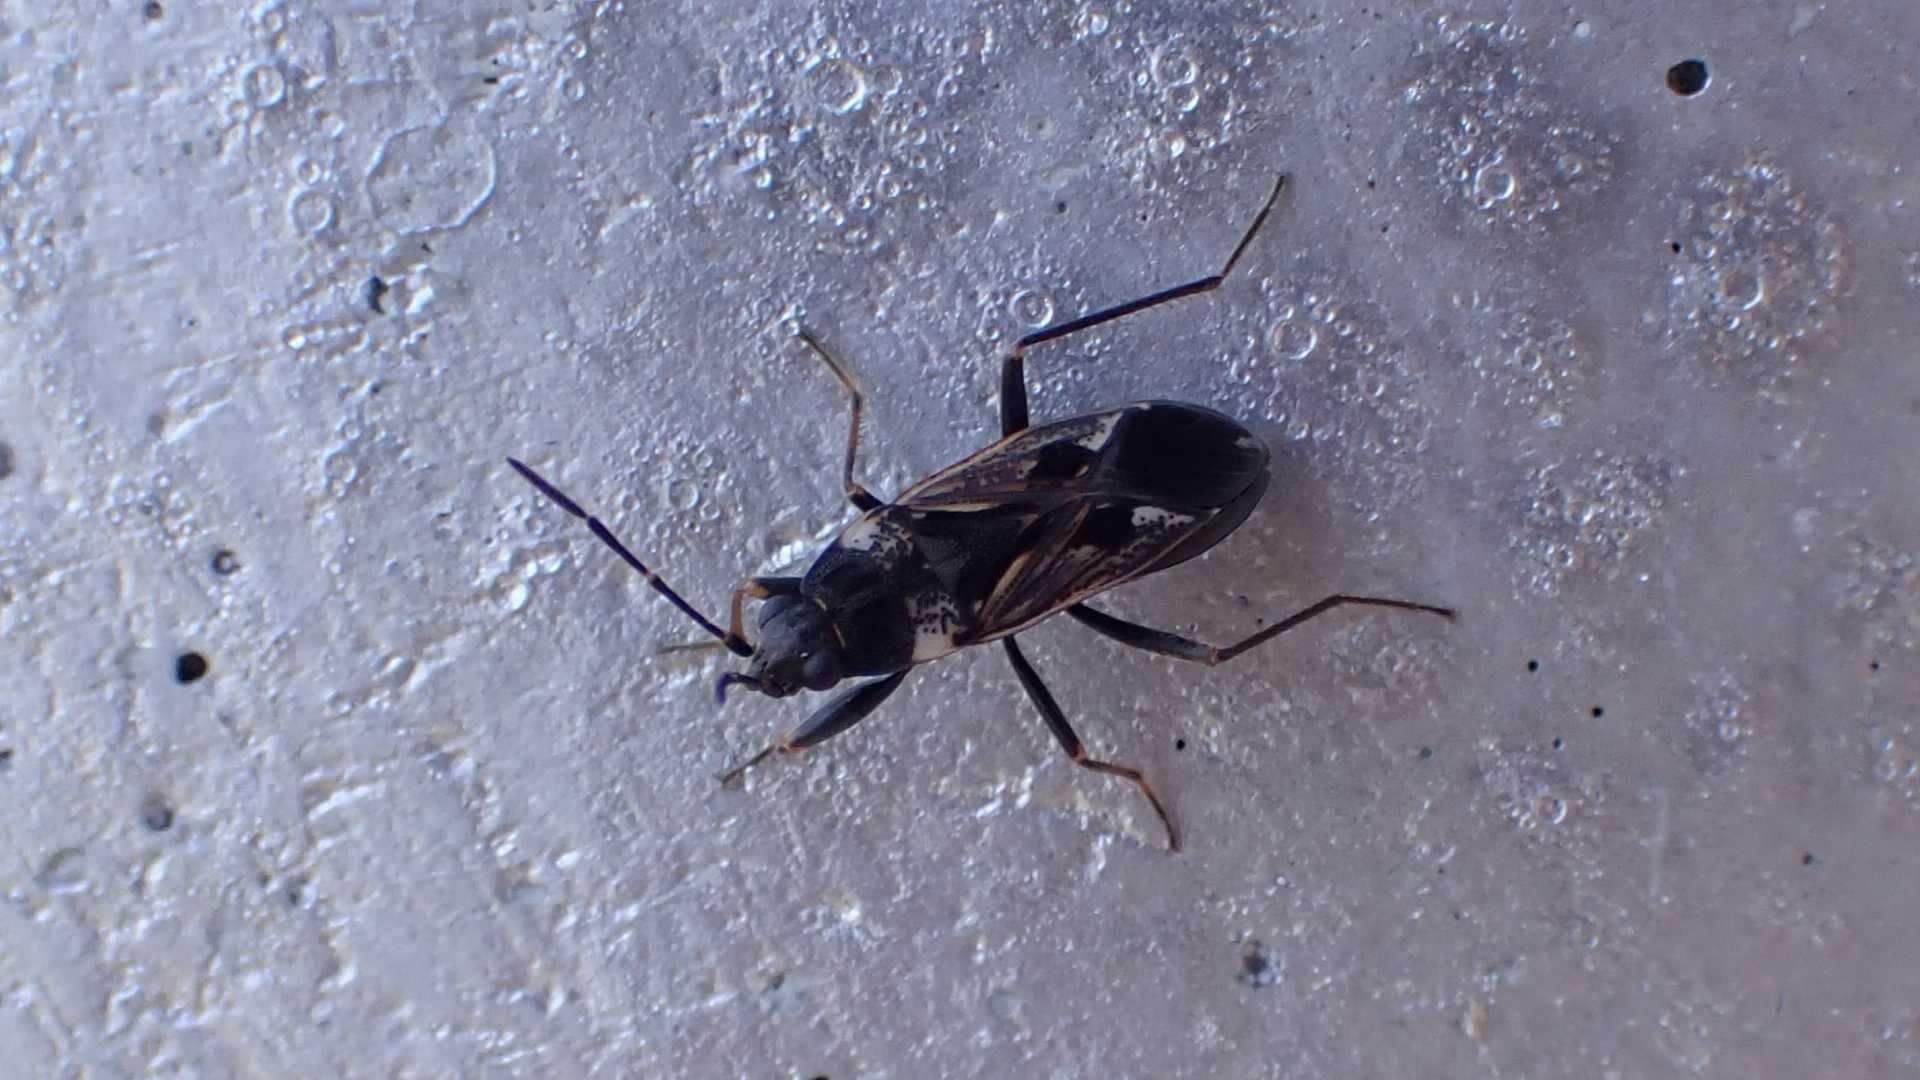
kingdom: Animalia
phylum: Arthropoda
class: Insecta
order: Hemiptera
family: Rhyparochromidae
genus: Rhyparochromus
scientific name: Rhyparochromus vulgaris
